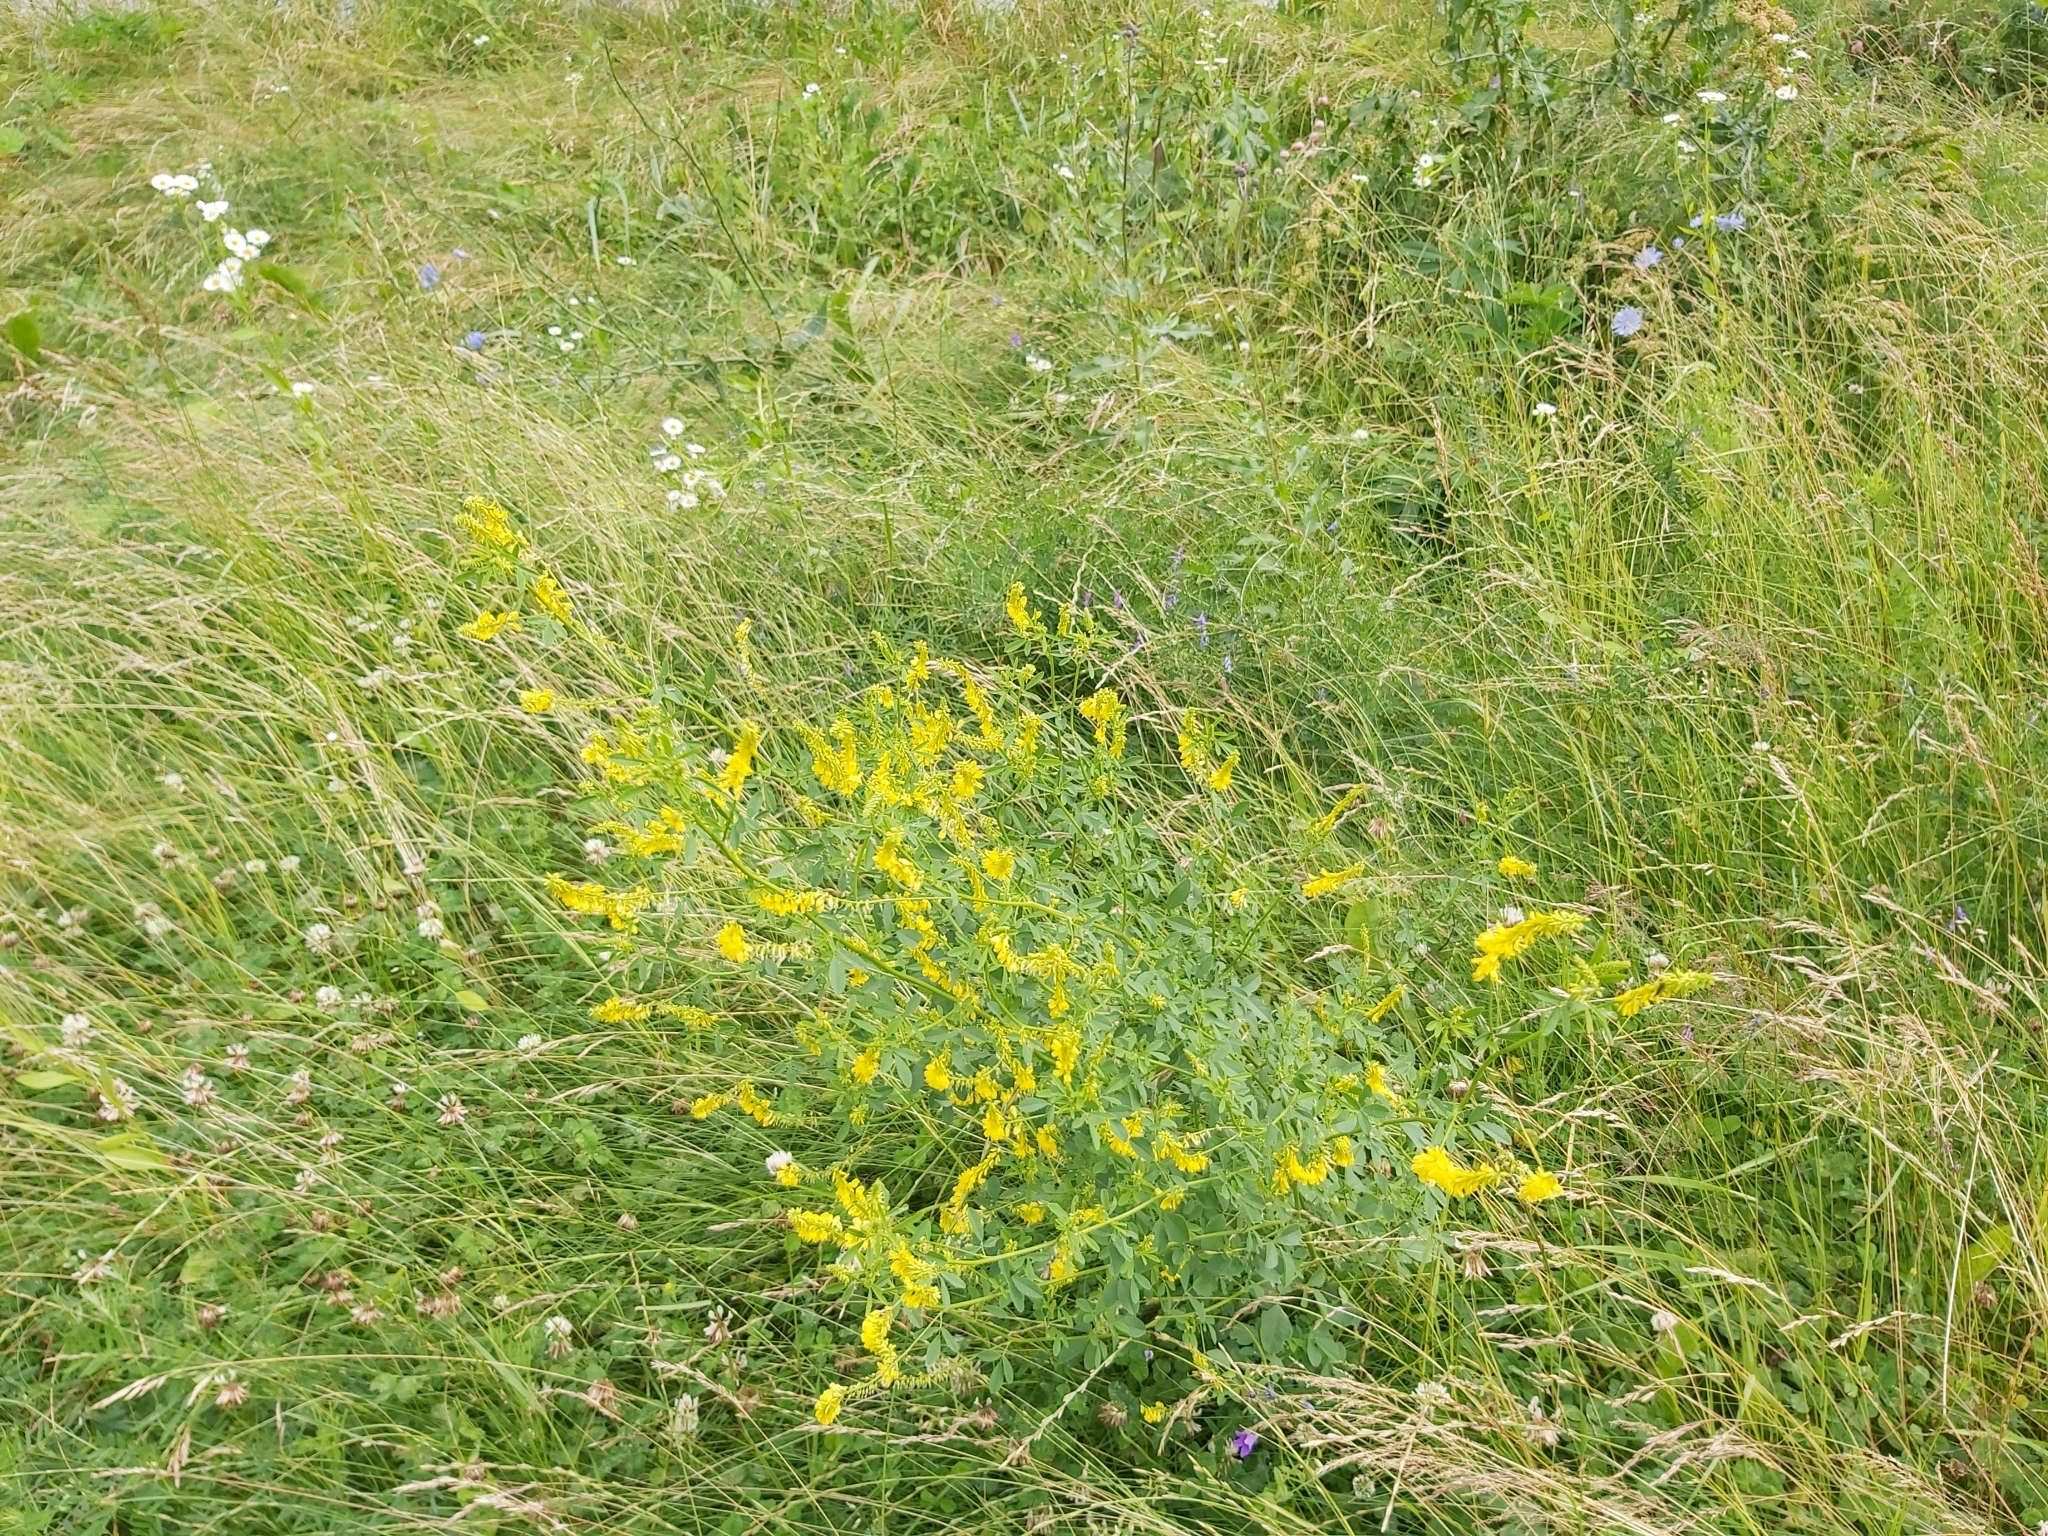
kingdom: Plantae
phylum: Tracheophyta
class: Magnoliopsida
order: Fabales
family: Fabaceae
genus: Melilotus
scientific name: Melilotus officinalis
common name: Sweetclover
